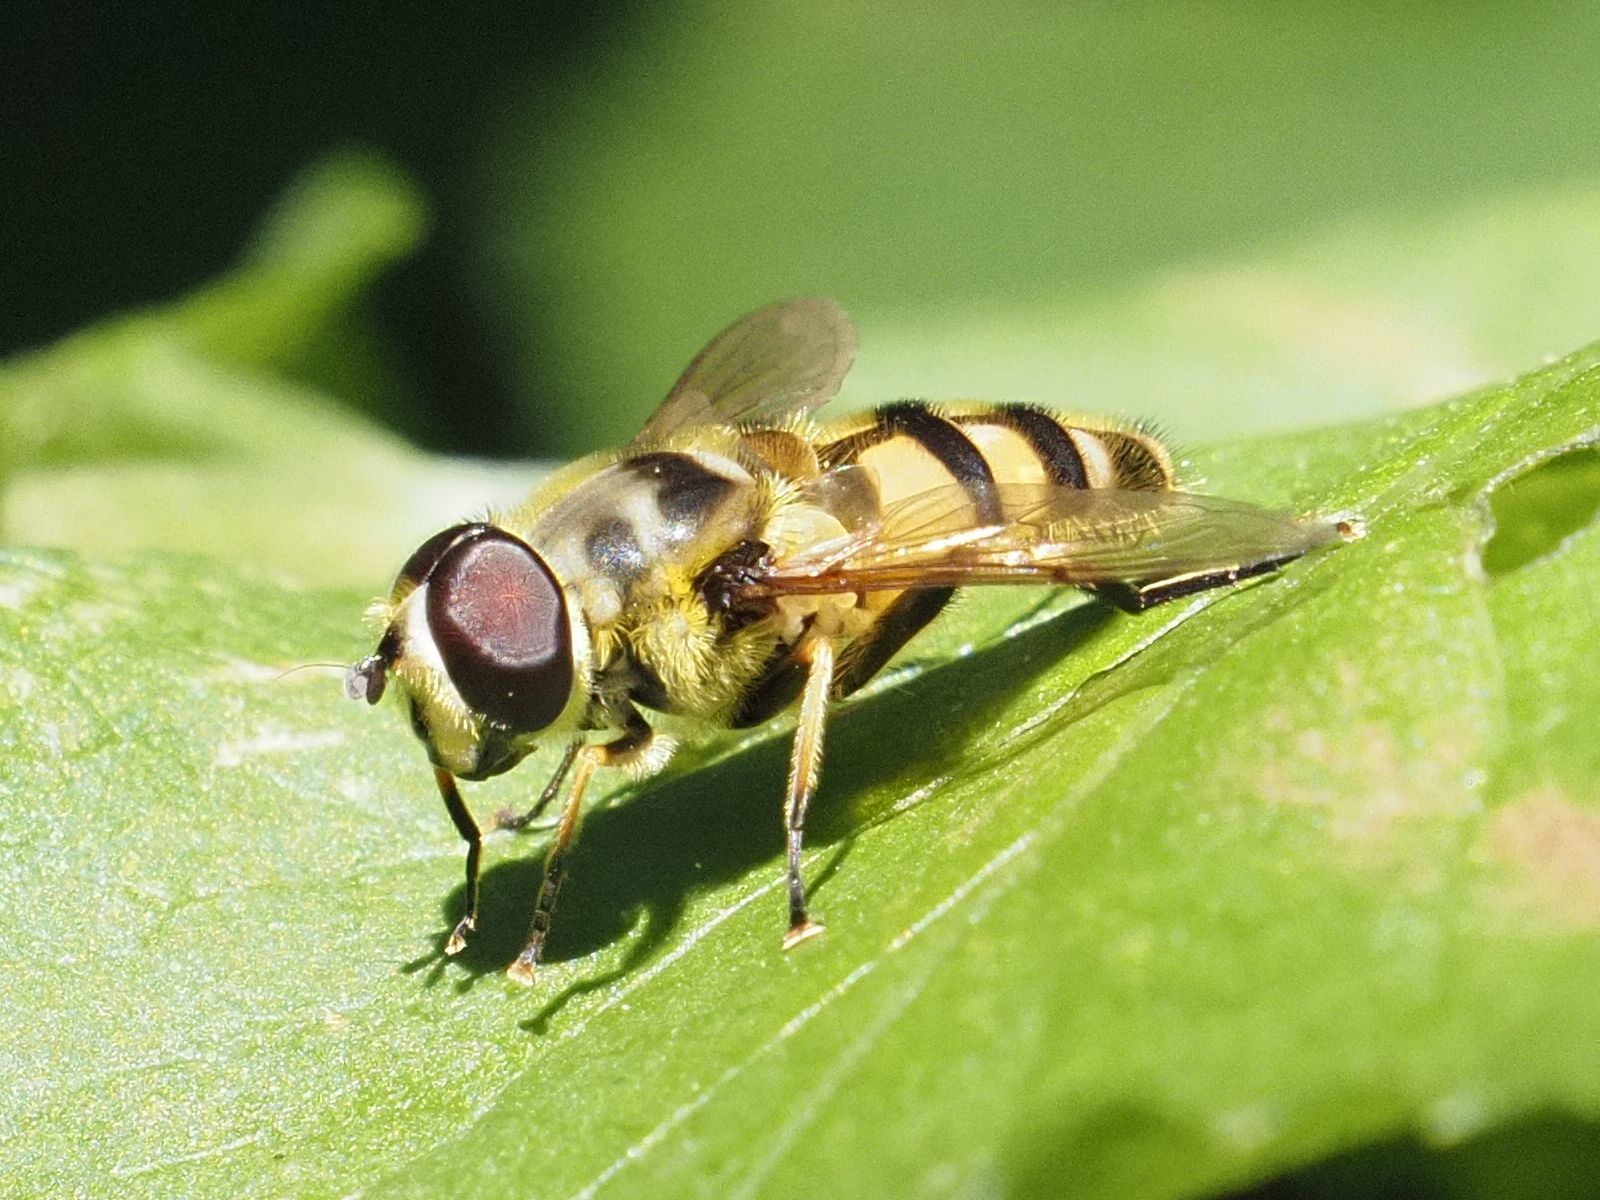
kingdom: Animalia
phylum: Arthropoda
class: Insecta
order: Diptera
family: Syrphidae
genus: Myathropa
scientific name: Myathropa florea
